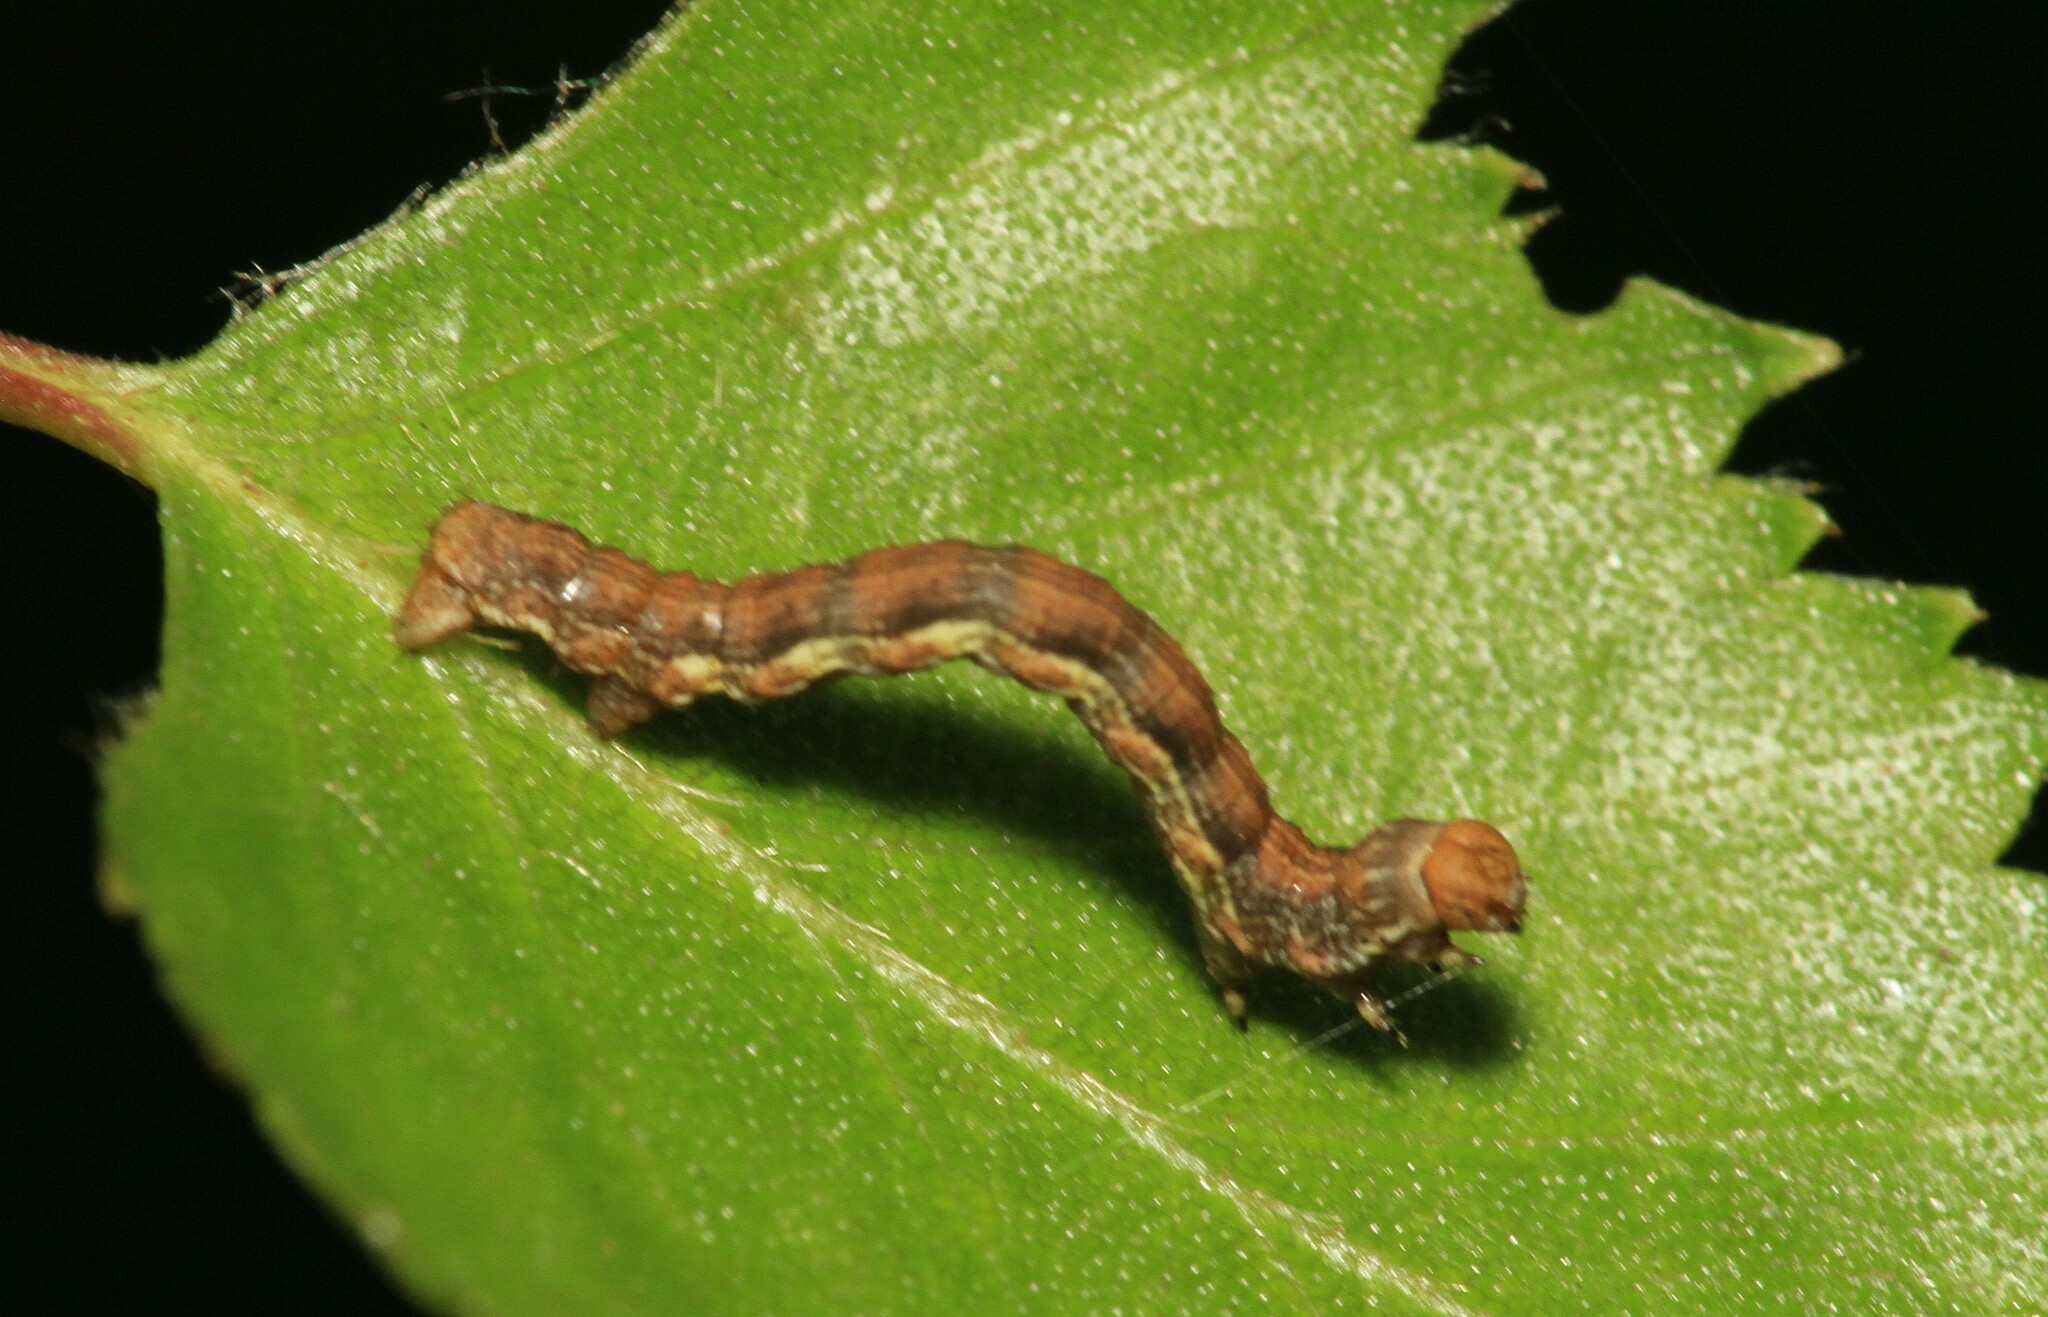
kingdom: Animalia
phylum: Arthropoda
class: Insecta
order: Lepidoptera
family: Geometridae
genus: Erannis
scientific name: Erannis defoliaria
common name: Mottled umber
